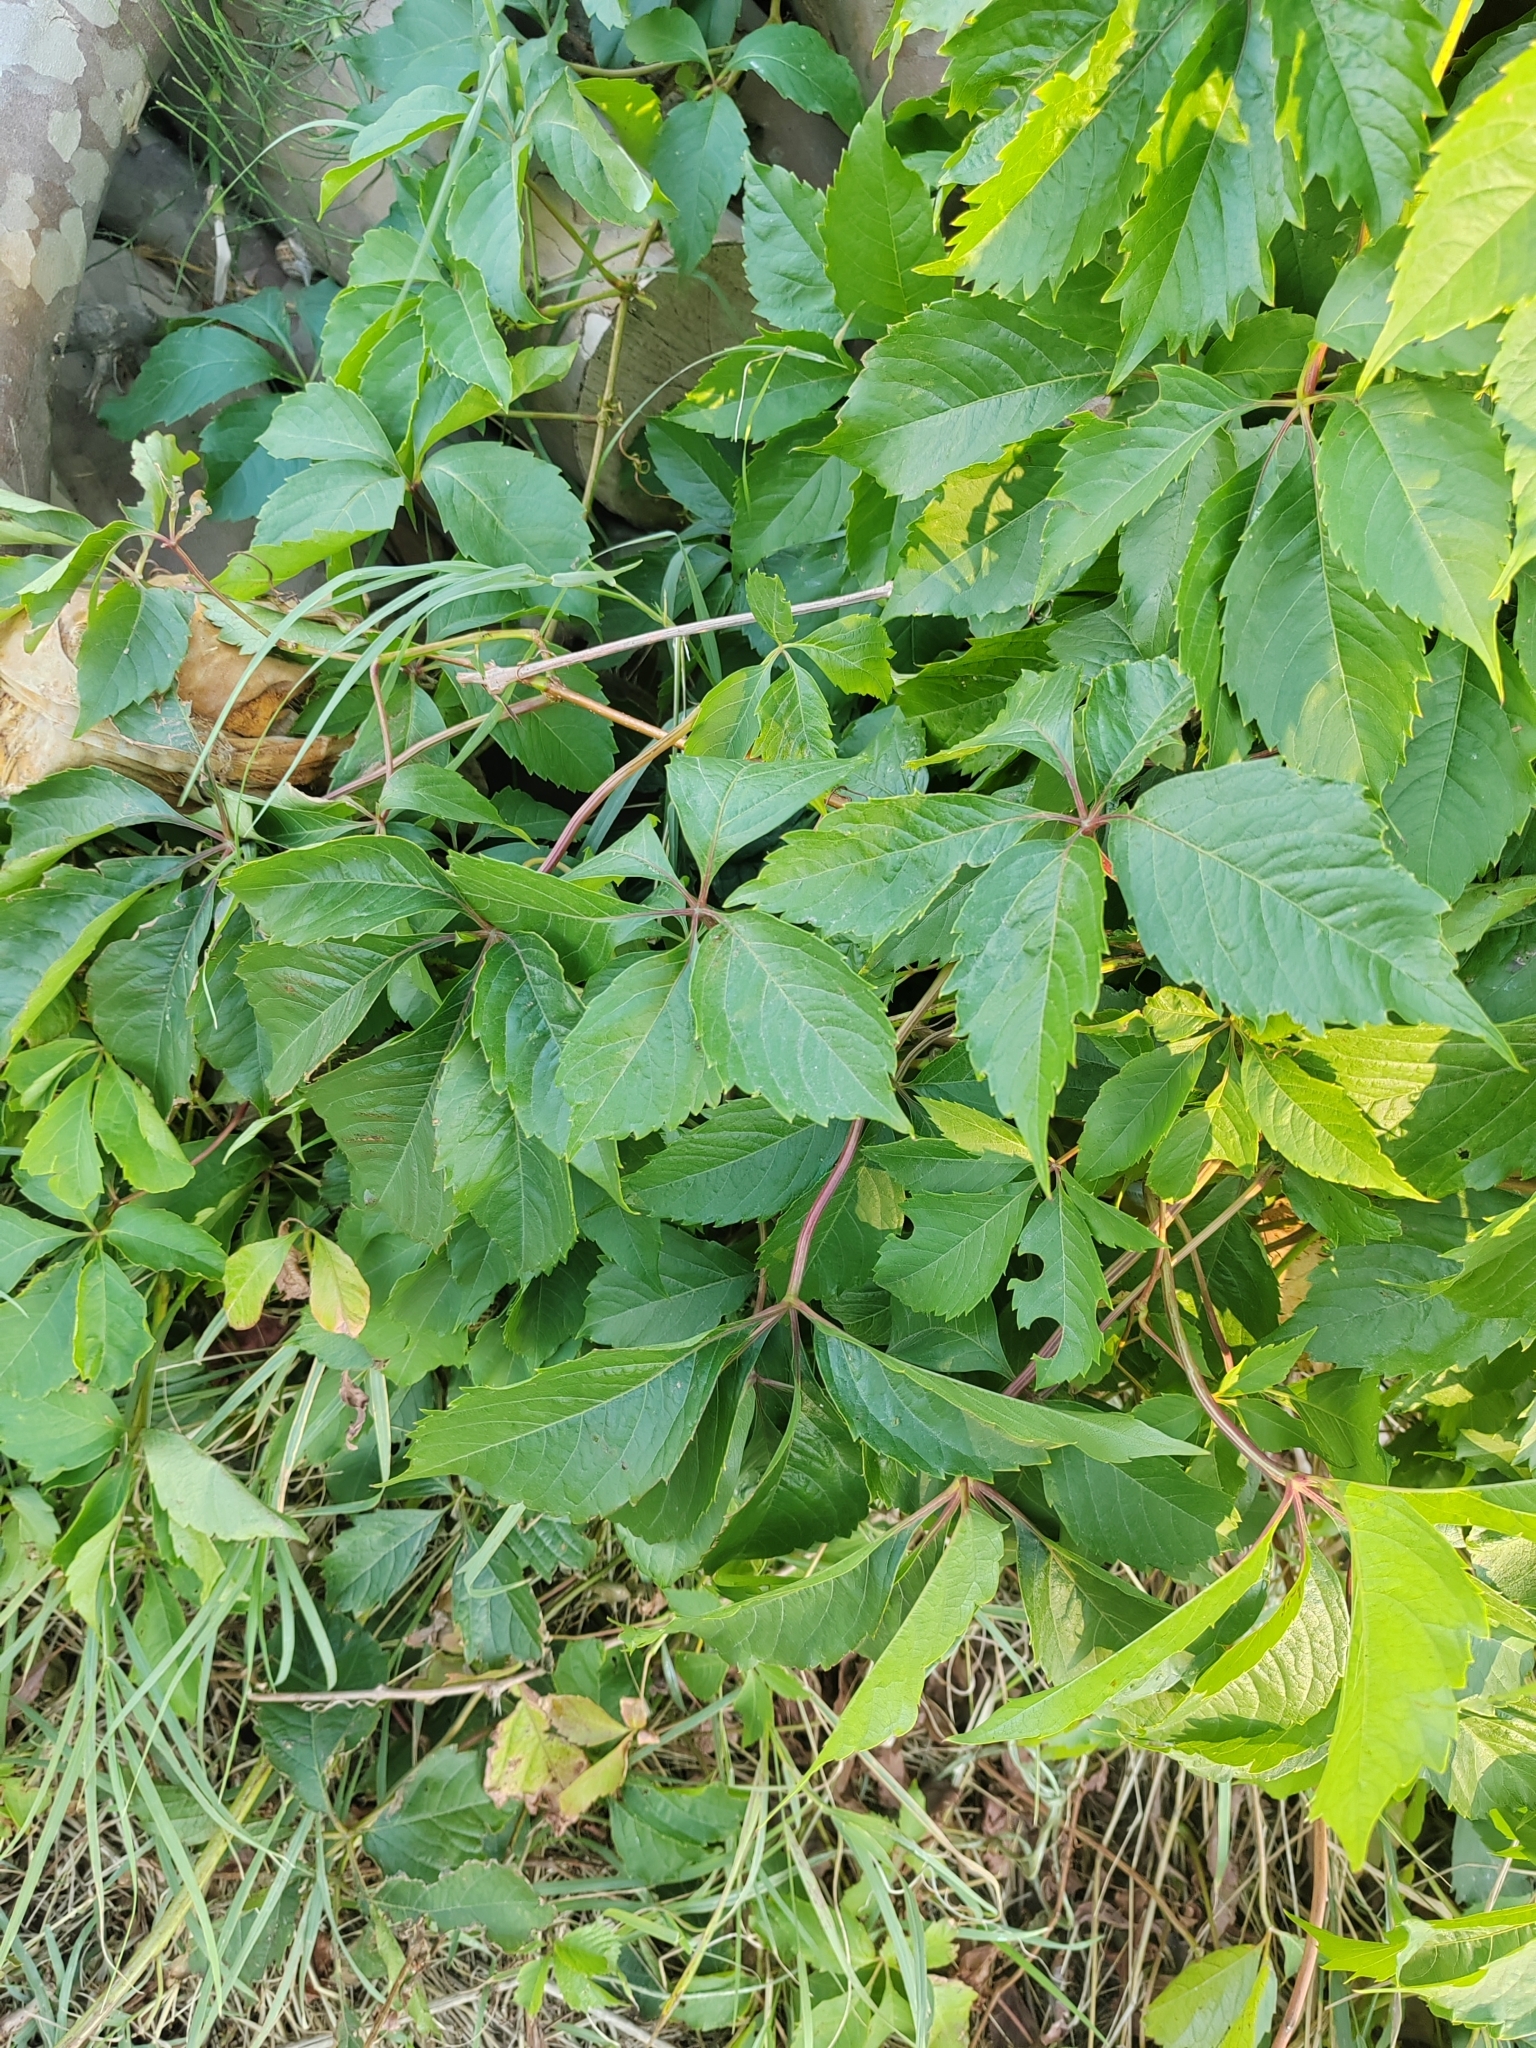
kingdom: Plantae
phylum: Tracheophyta
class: Magnoliopsida
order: Vitales
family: Vitaceae
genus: Parthenocissus
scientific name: Parthenocissus inserta
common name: False virginia-creeper
